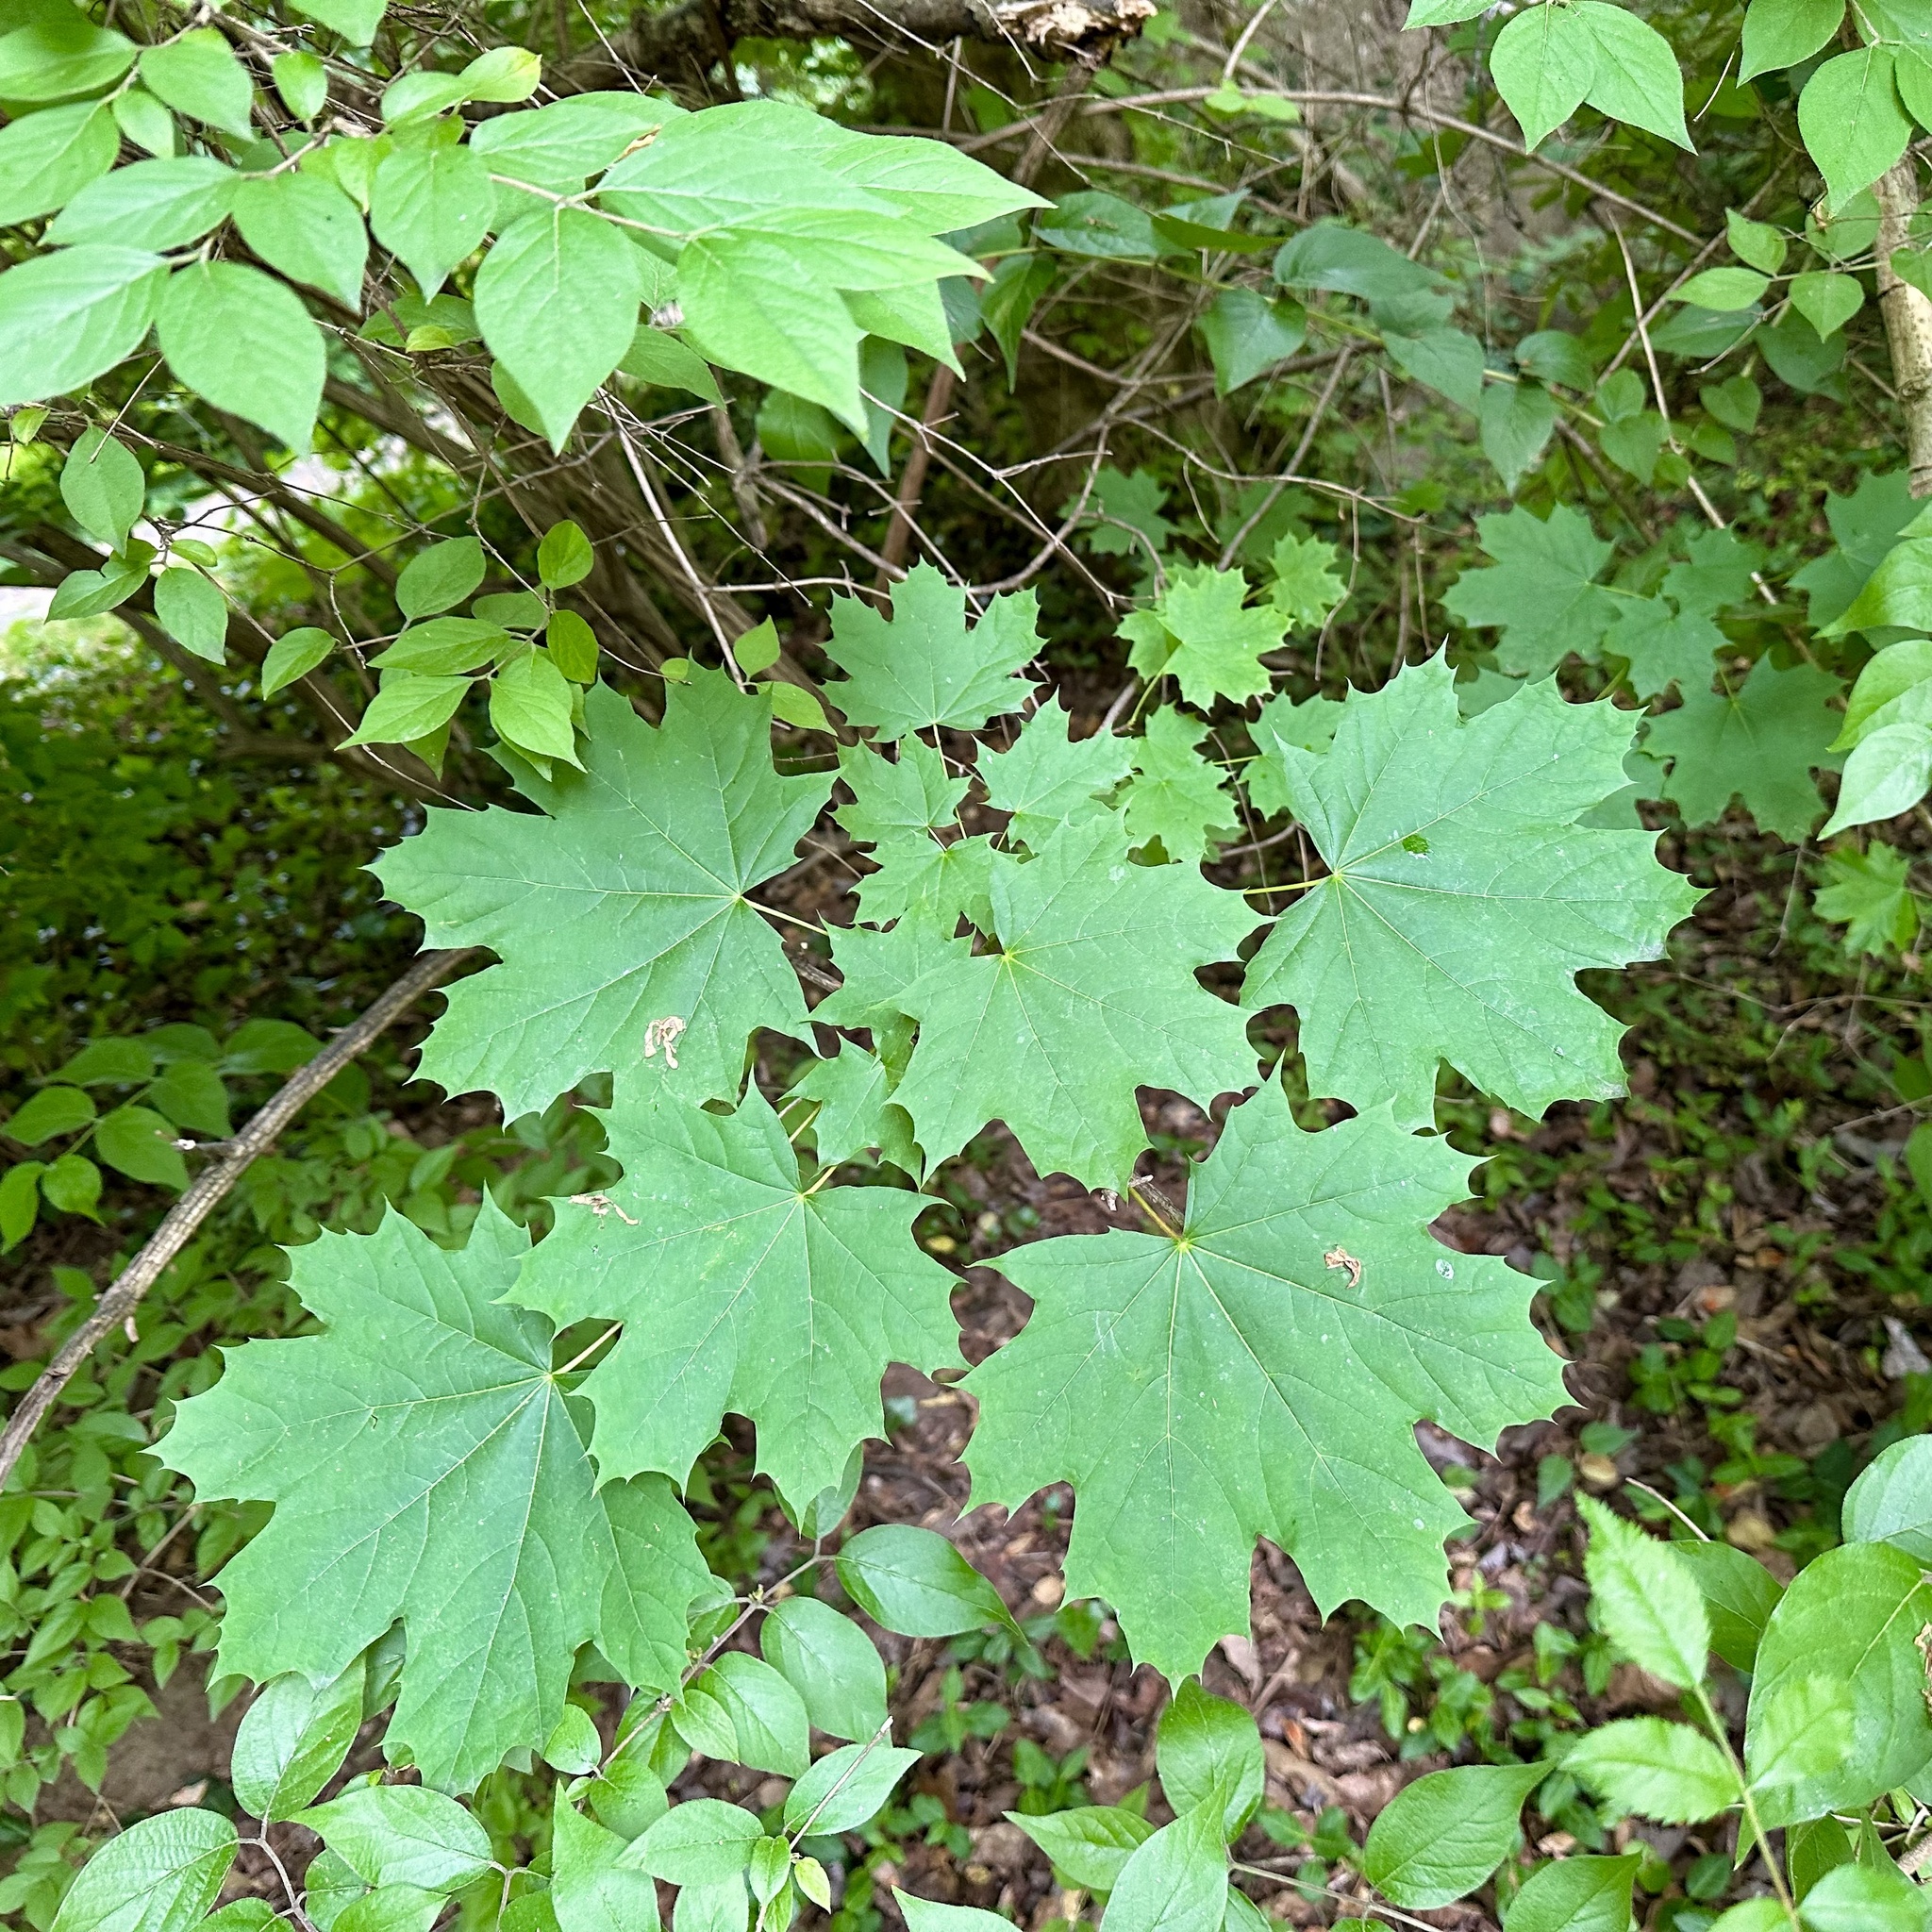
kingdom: Plantae
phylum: Tracheophyta
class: Magnoliopsida
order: Sapindales
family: Sapindaceae
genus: Acer
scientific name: Acer platanoides
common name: Norway maple
